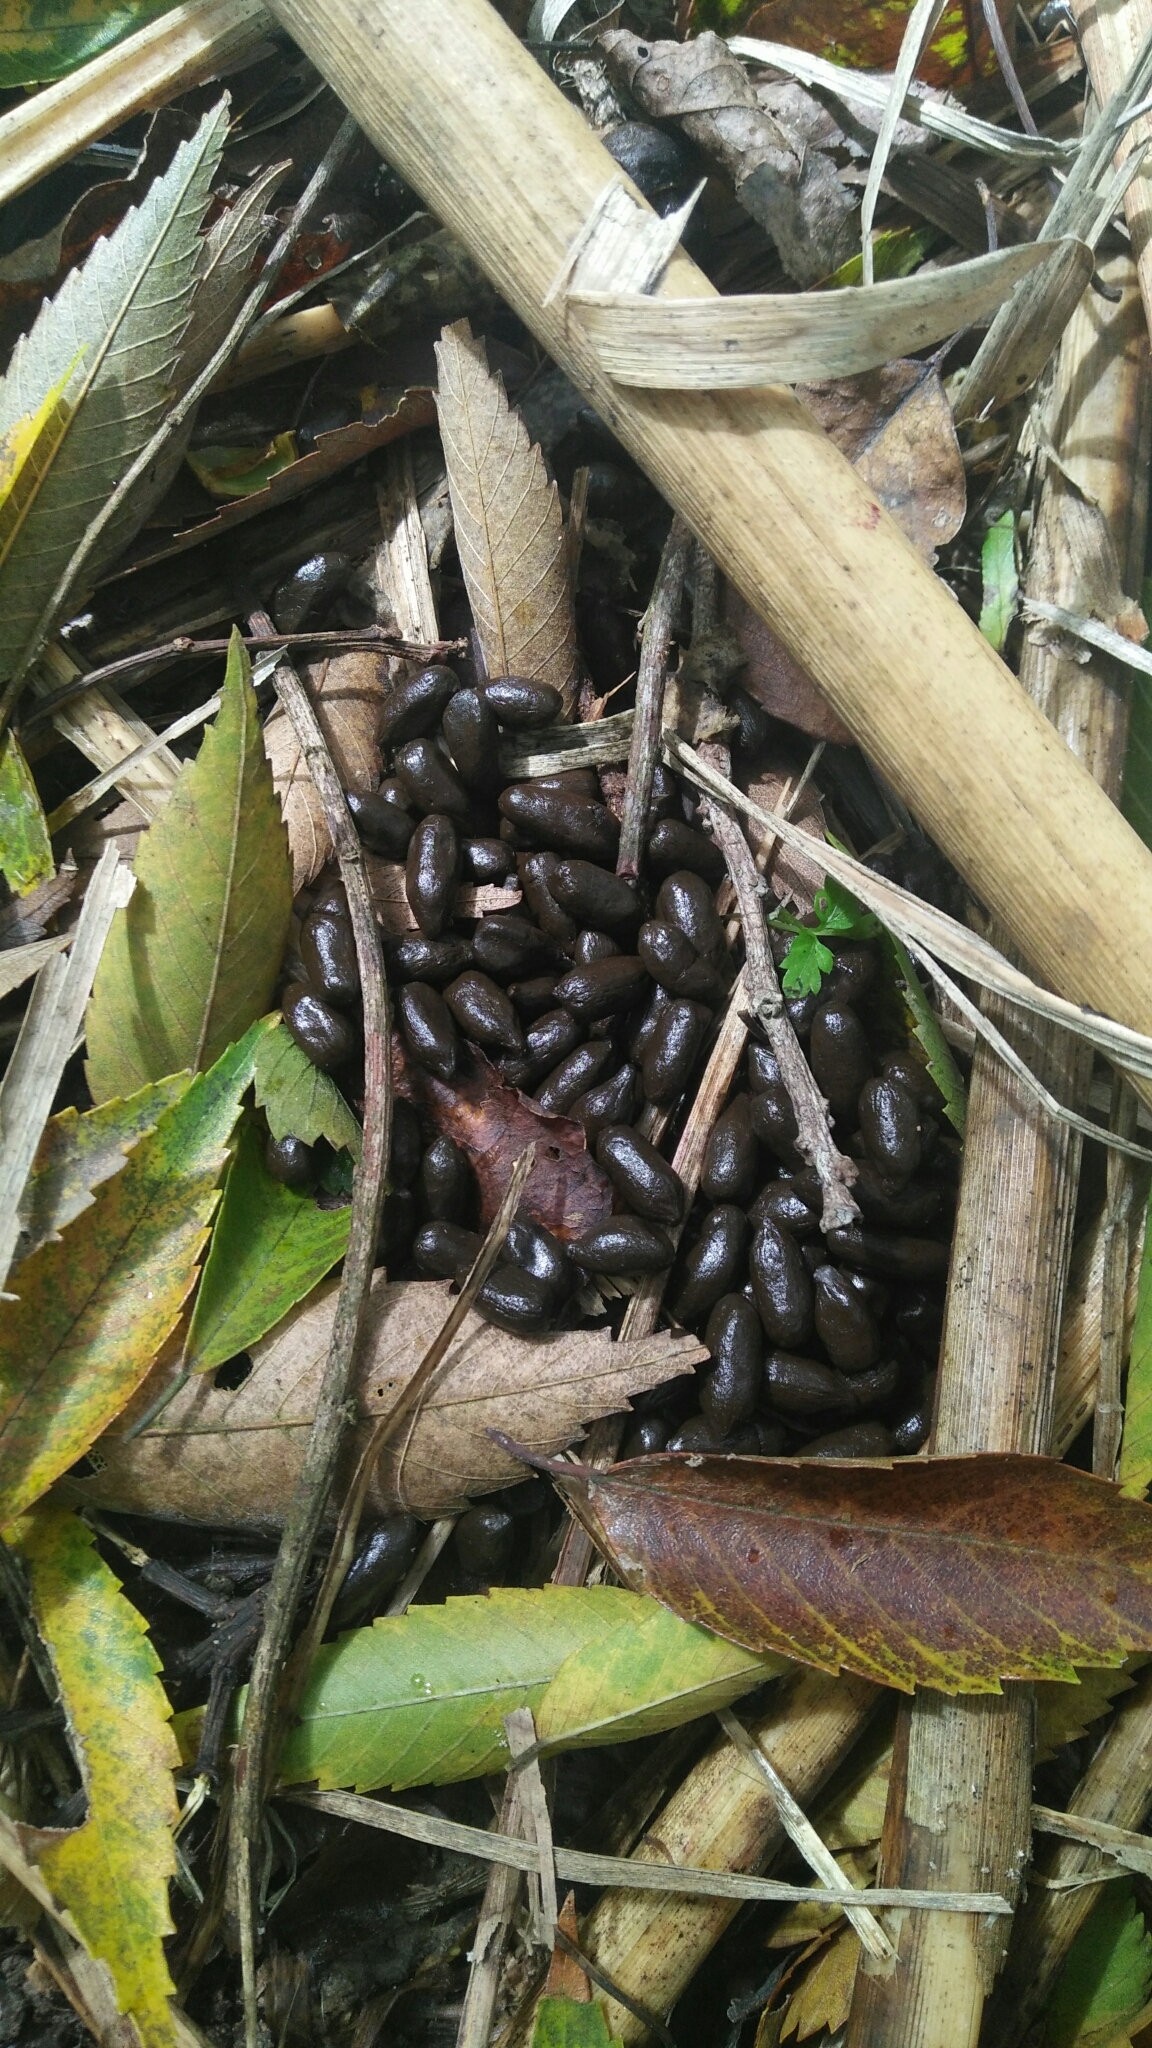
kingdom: Animalia
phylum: Chordata
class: Mammalia
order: Artiodactyla
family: Cervidae
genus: Muntiacus
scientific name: Muntiacus reevesi
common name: Reeves' muntjac
